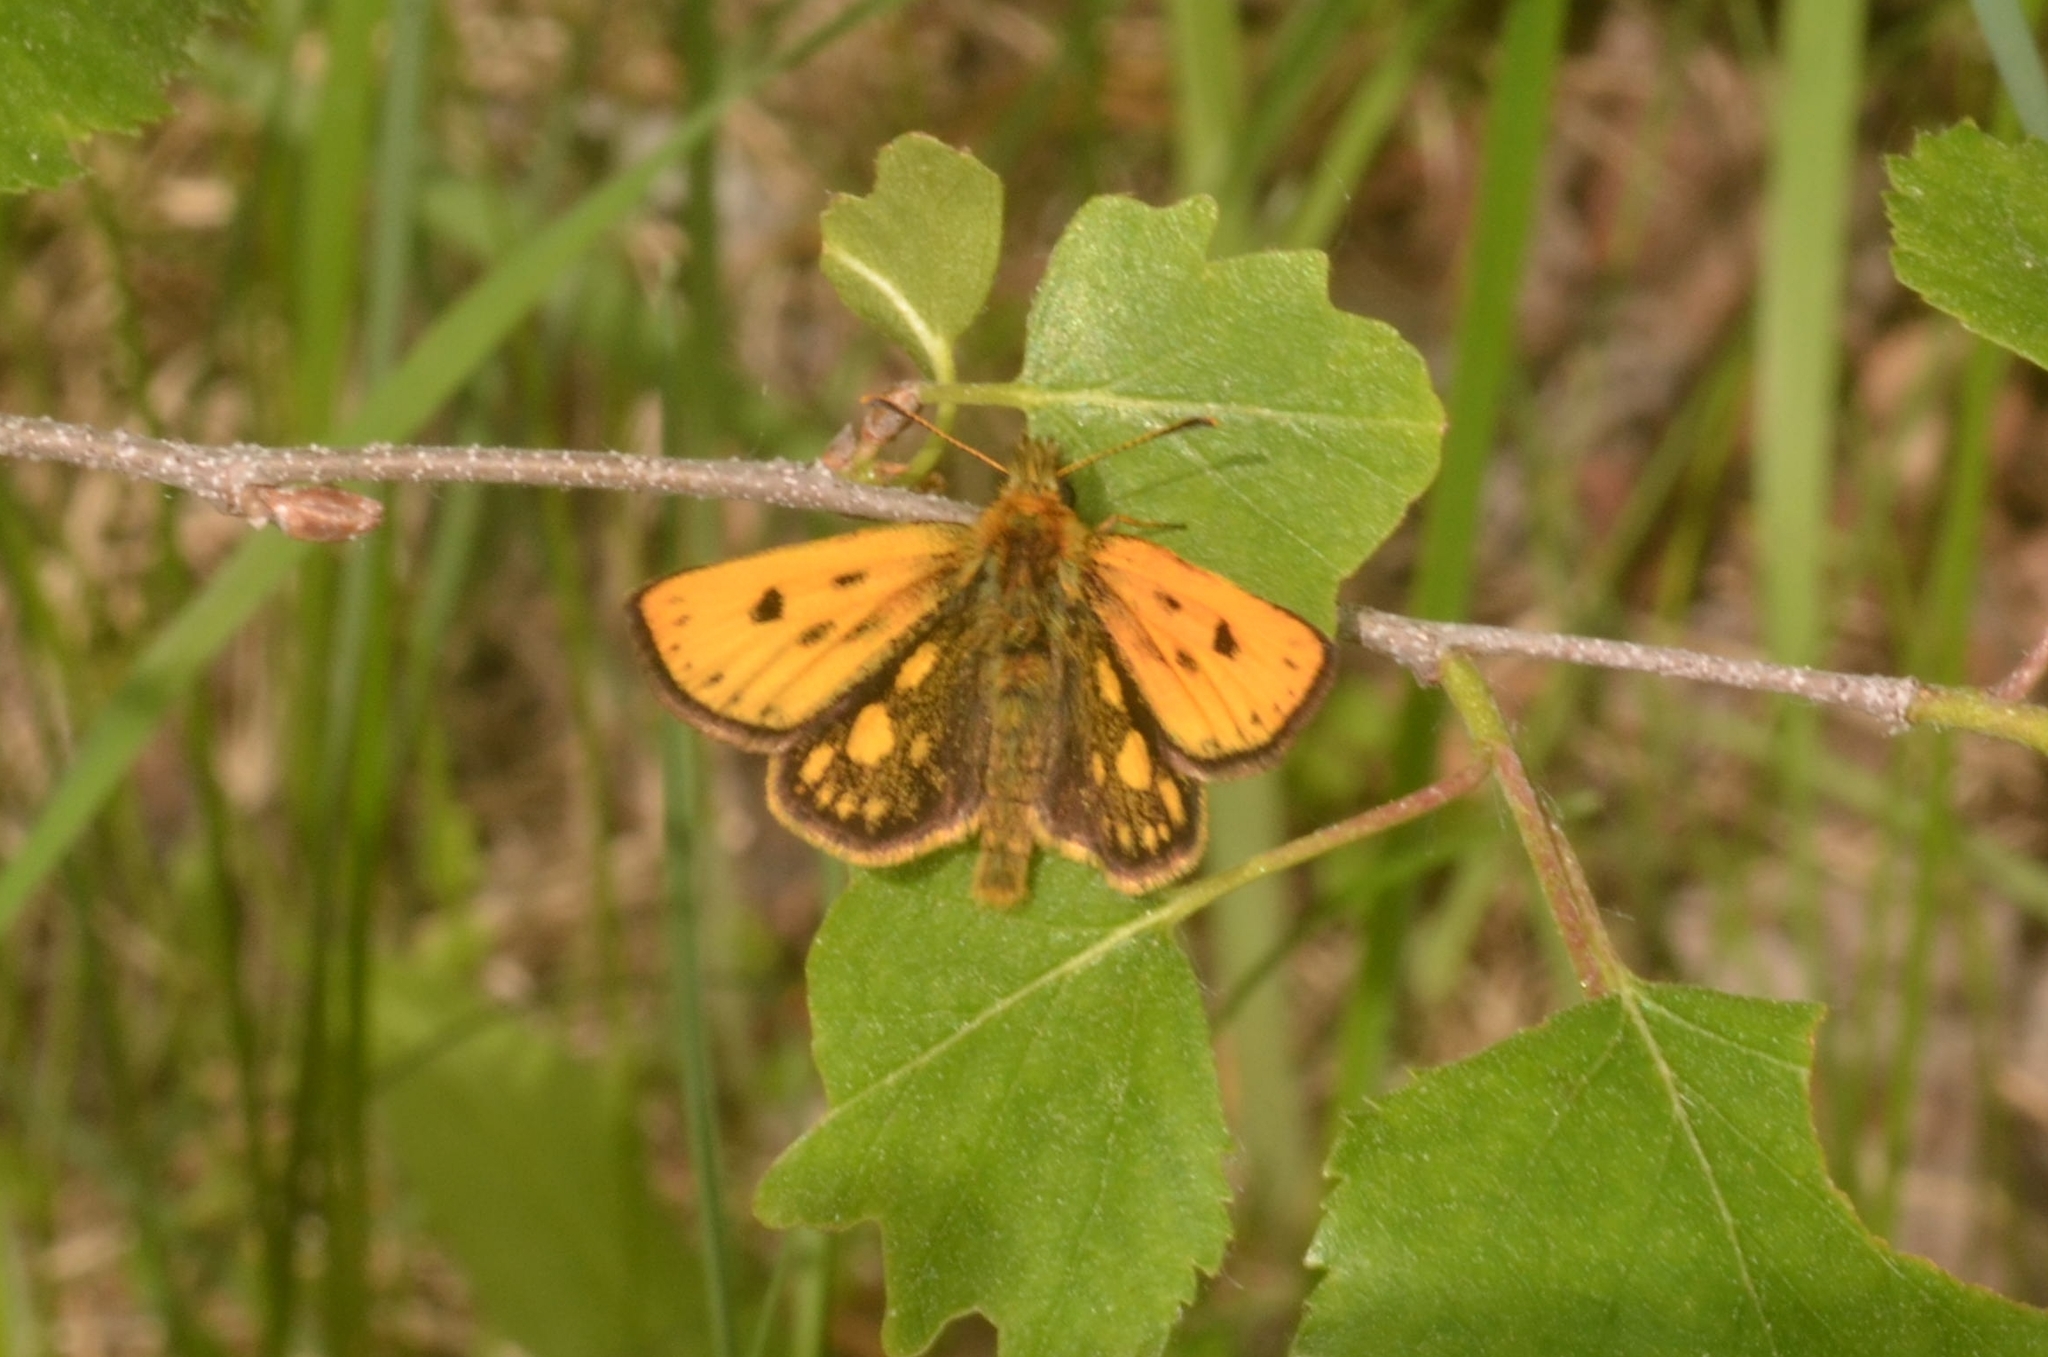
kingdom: Animalia
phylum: Arthropoda
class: Insecta
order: Lepidoptera
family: Hesperiidae
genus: Carterocephalus
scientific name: Carterocephalus silvicola
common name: Northern chequered skipper
